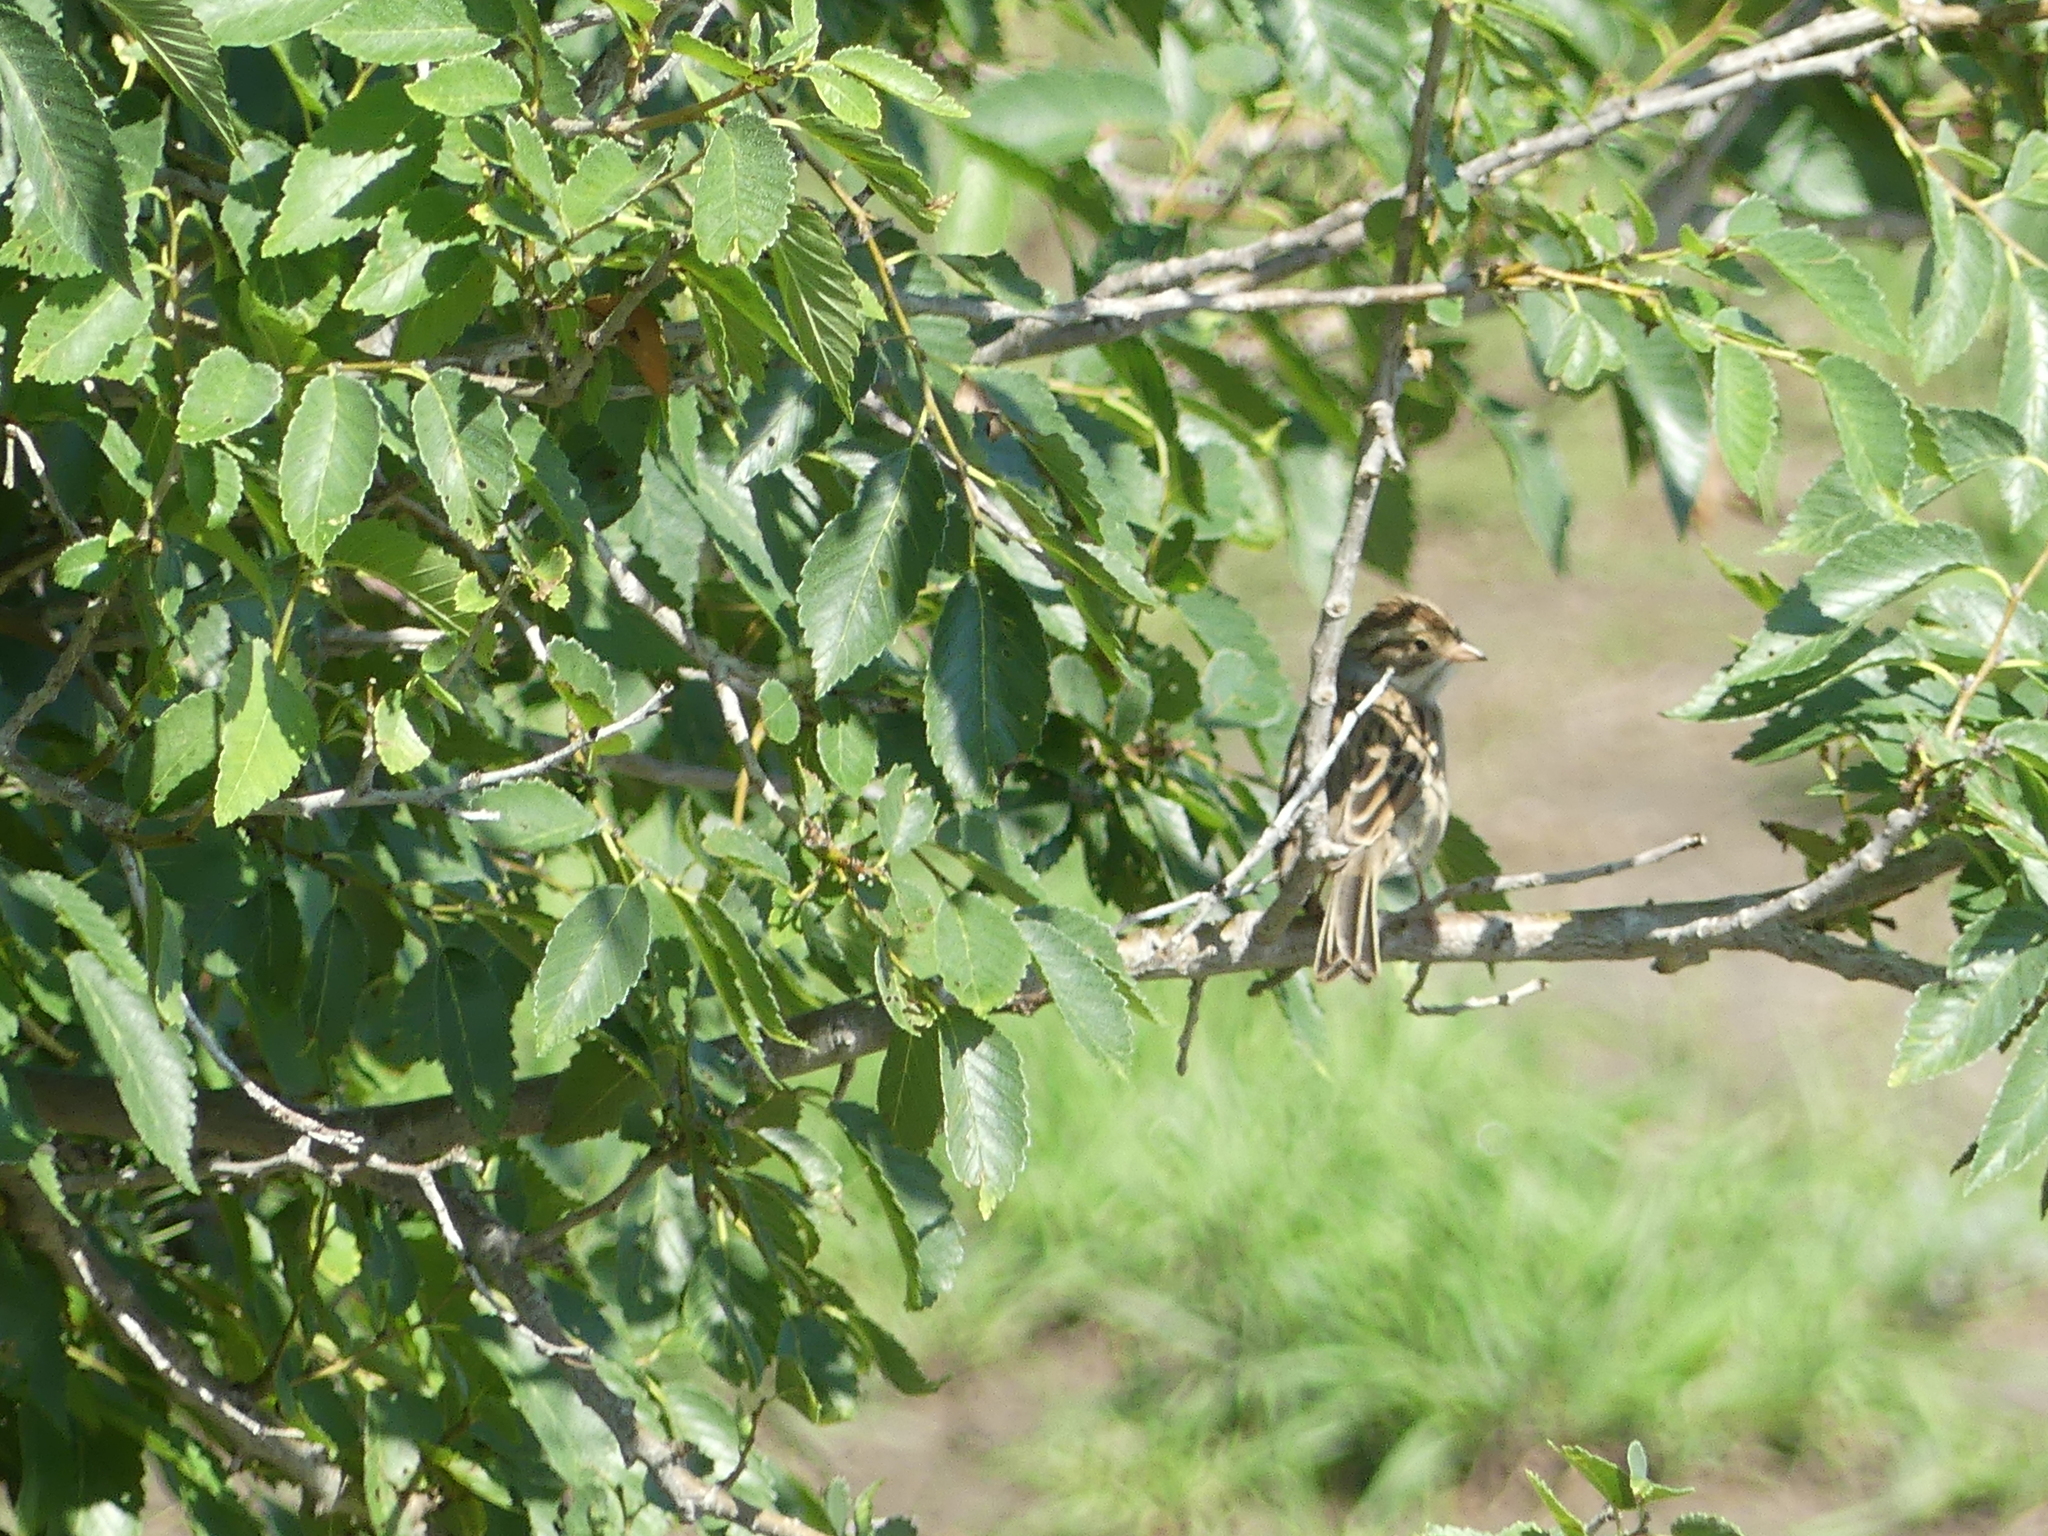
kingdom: Animalia
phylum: Chordata
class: Aves
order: Passeriformes
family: Passerellidae
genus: Spizella
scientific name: Spizella pallida
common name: Clay-colored sparrow
